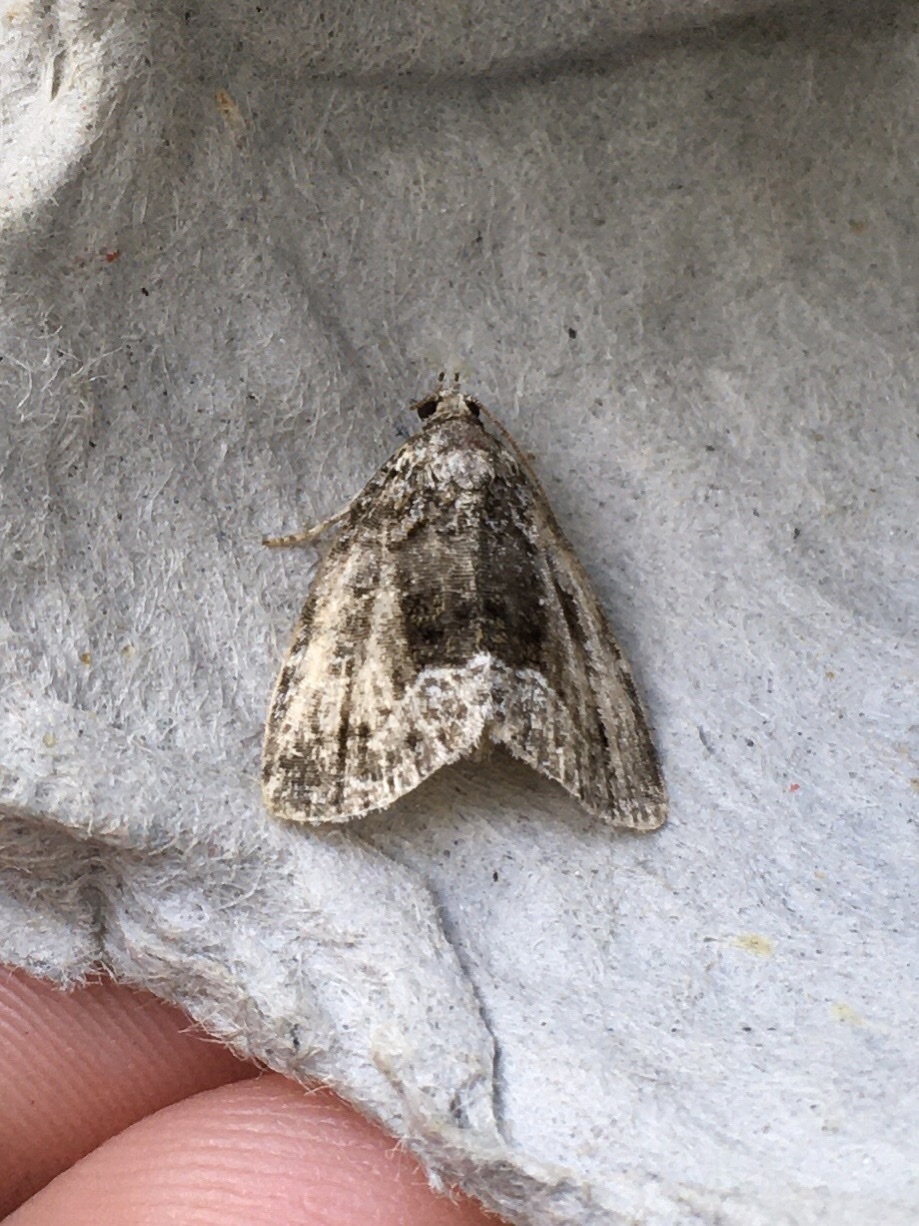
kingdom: Animalia
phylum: Arthropoda
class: Insecta
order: Lepidoptera
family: Noctuidae
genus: Protodeltote
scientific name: Protodeltote muscosula
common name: Large mossy glyph
